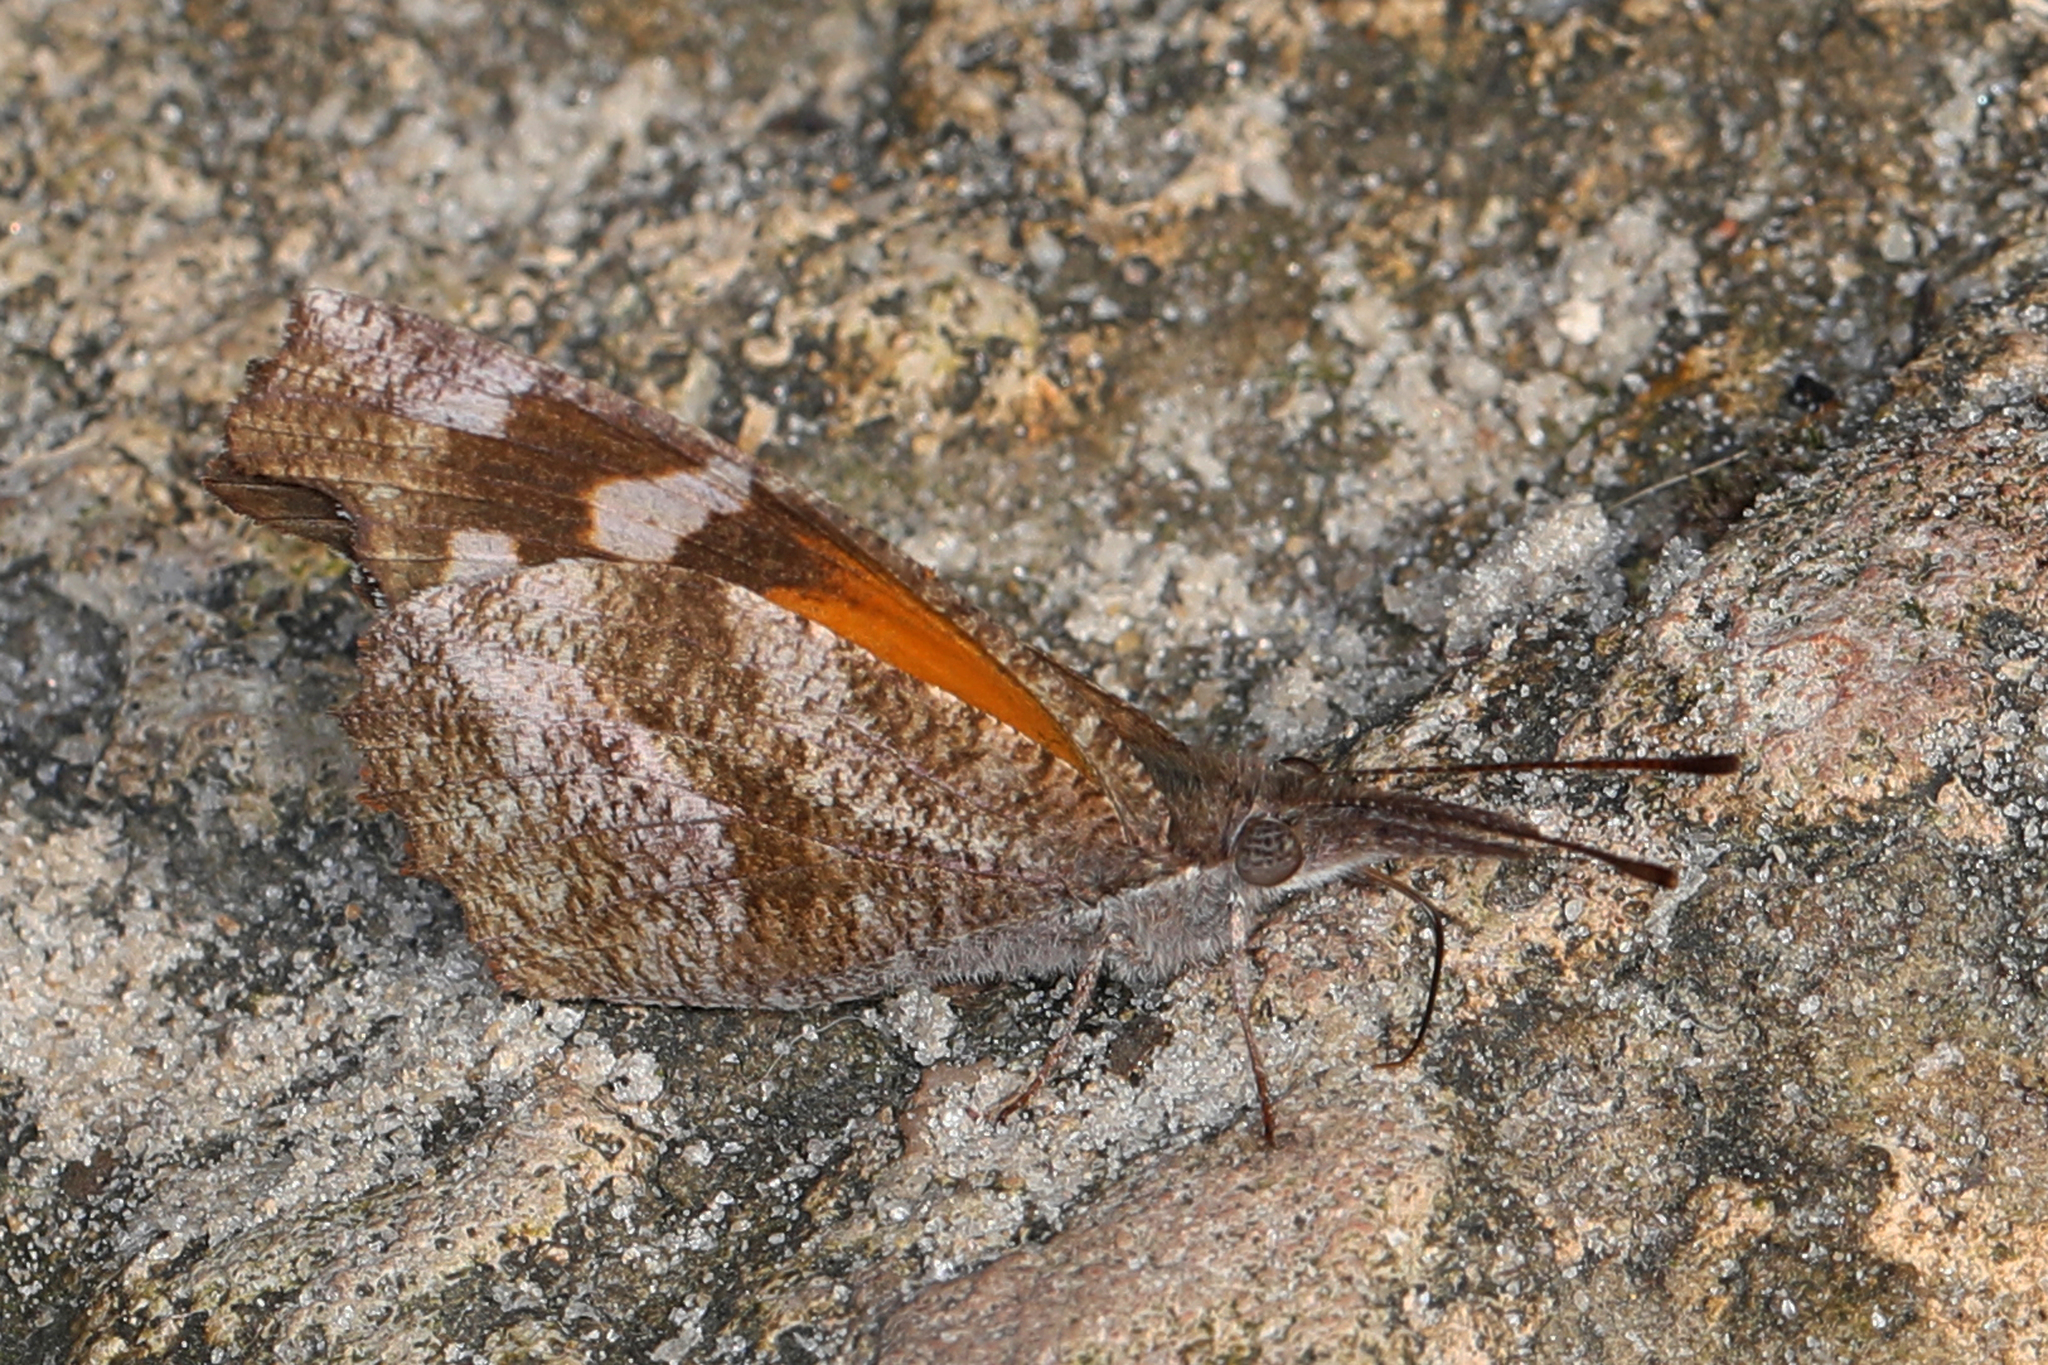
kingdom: Animalia
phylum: Arthropoda
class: Insecta
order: Lepidoptera
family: Nymphalidae
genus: Libytheana
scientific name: Libytheana carinenta
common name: American snout
